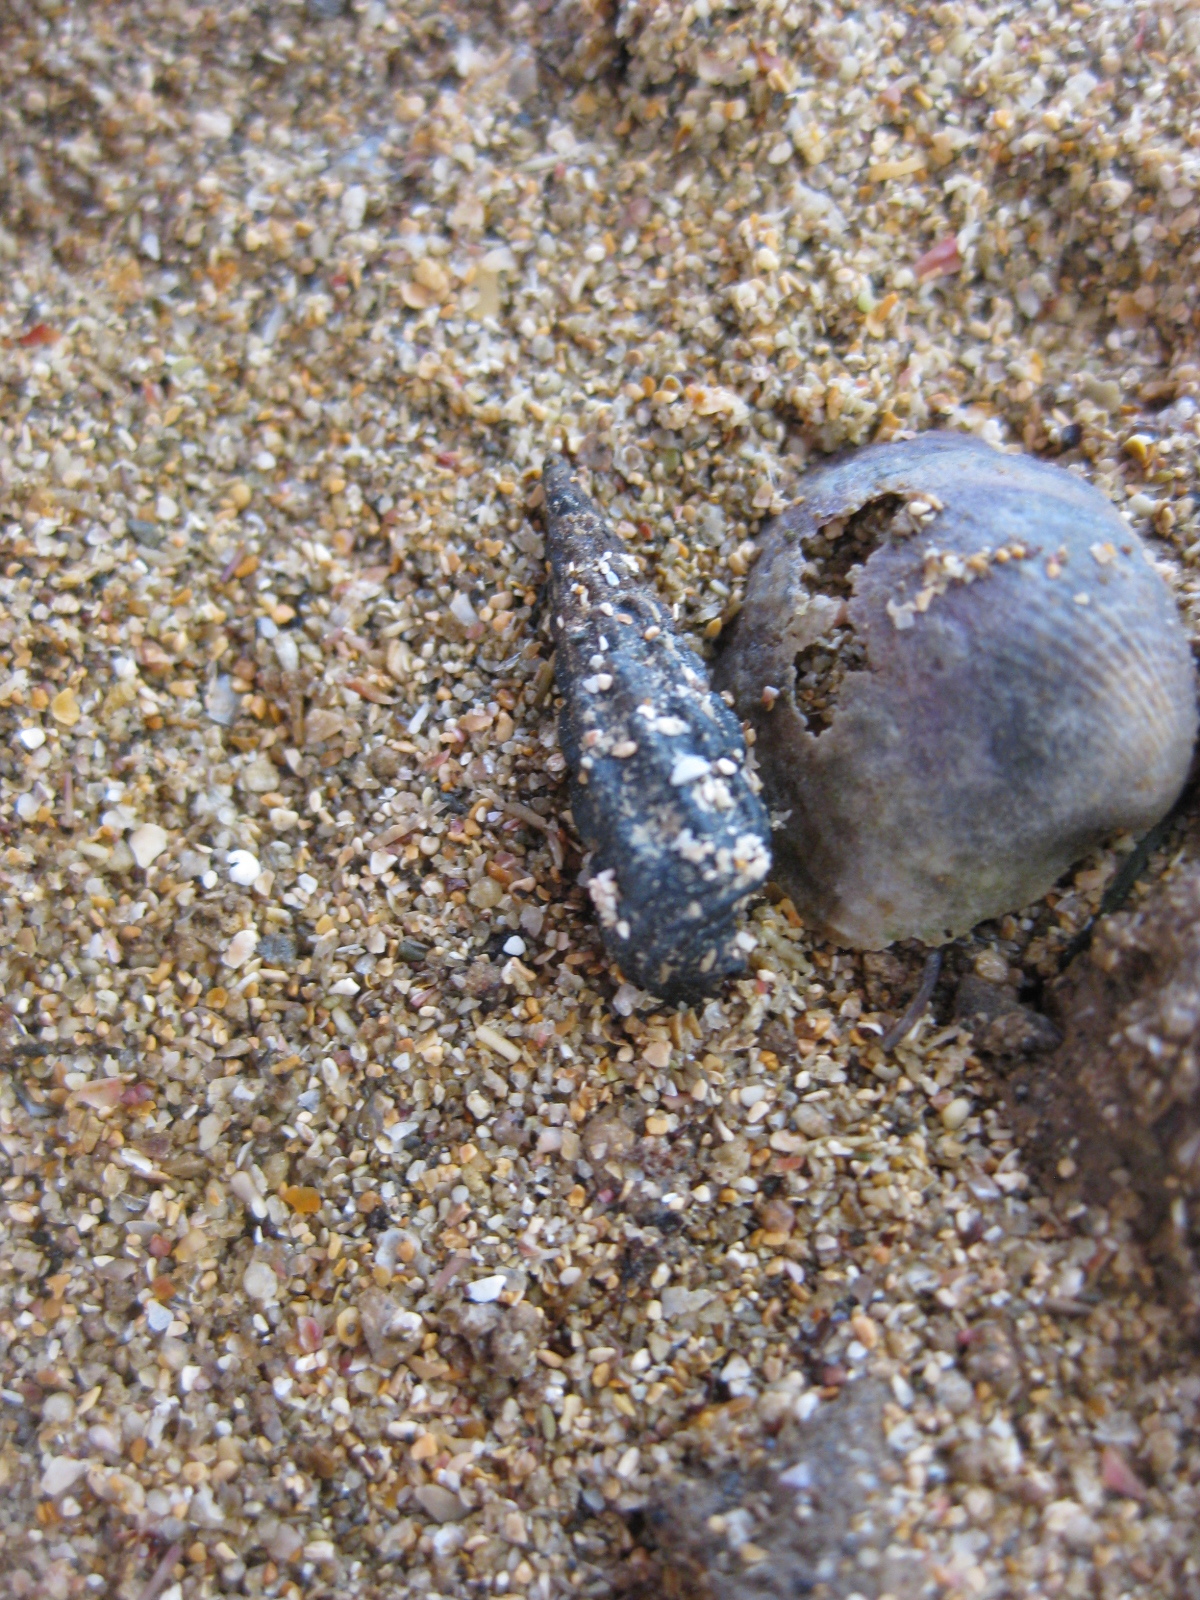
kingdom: Animalia
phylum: Mollusca
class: Gastropoda
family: Batillariidae
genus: Zeacumantus
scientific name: Zeacumantus subcarinatus
